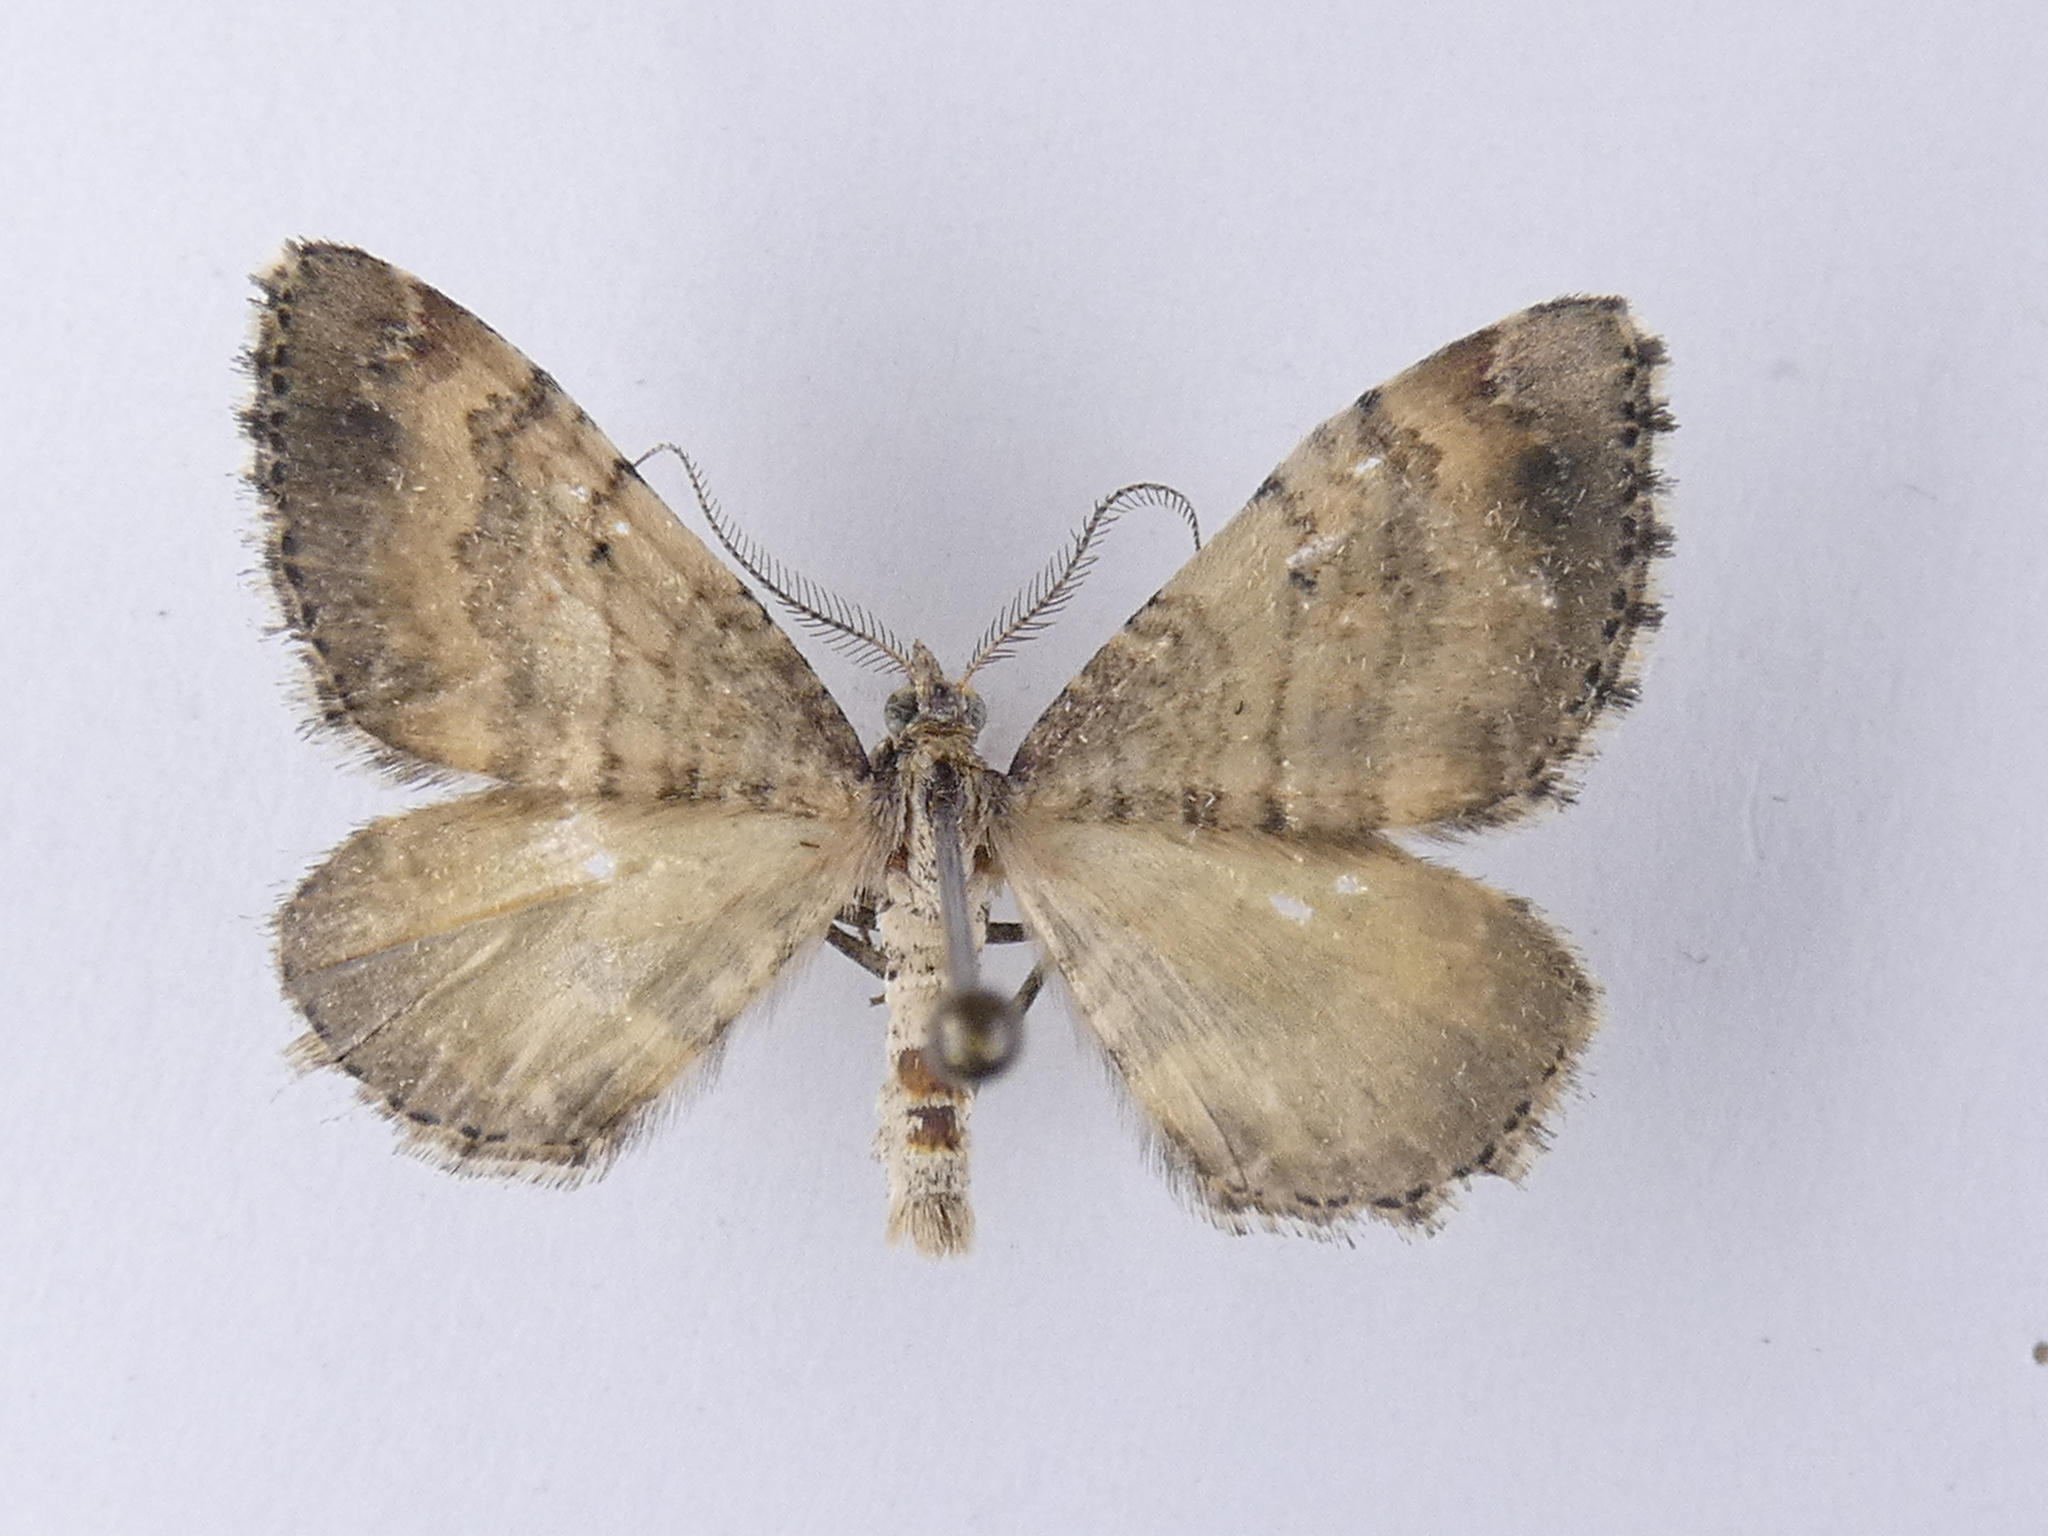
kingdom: Animalia
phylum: Arthropoda
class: Insecta
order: Lepidoptera
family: Geometridae
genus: Asaphodes
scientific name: Asaphodes aegrota
